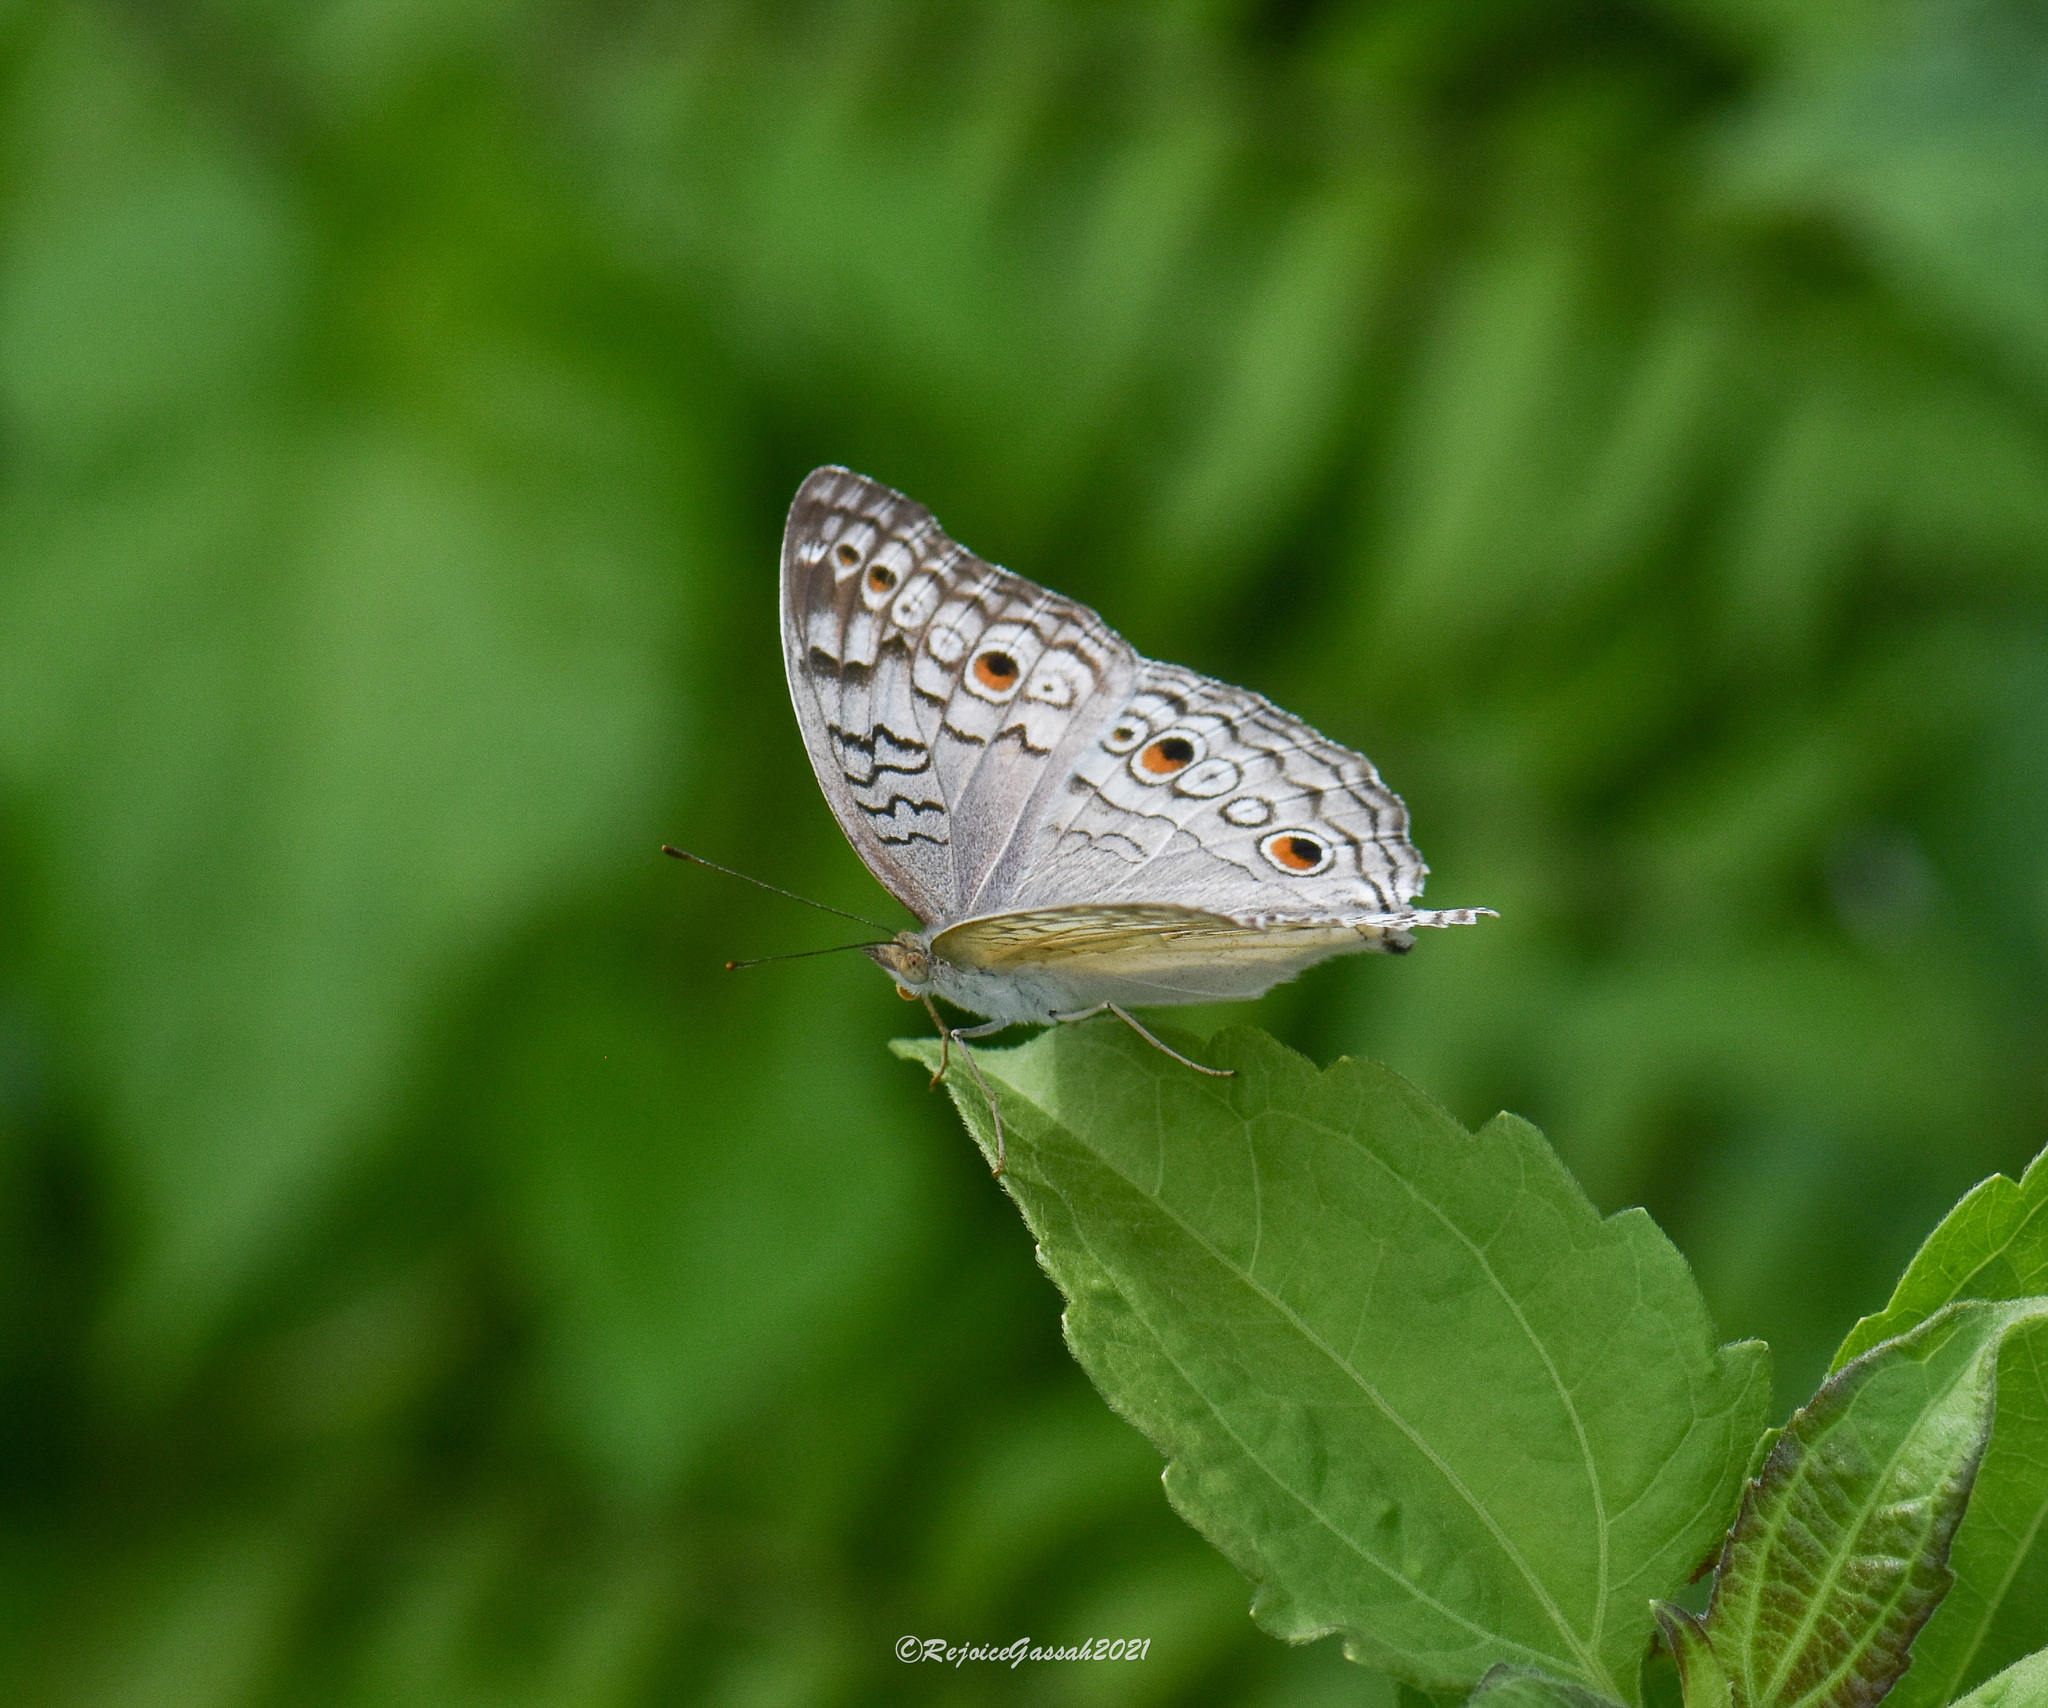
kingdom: Animalia
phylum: Arthropoda
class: Insecta
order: Lepidoptera
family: Nymphalidae
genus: Junonia
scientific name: Junonia atlites
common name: Grey pansy
